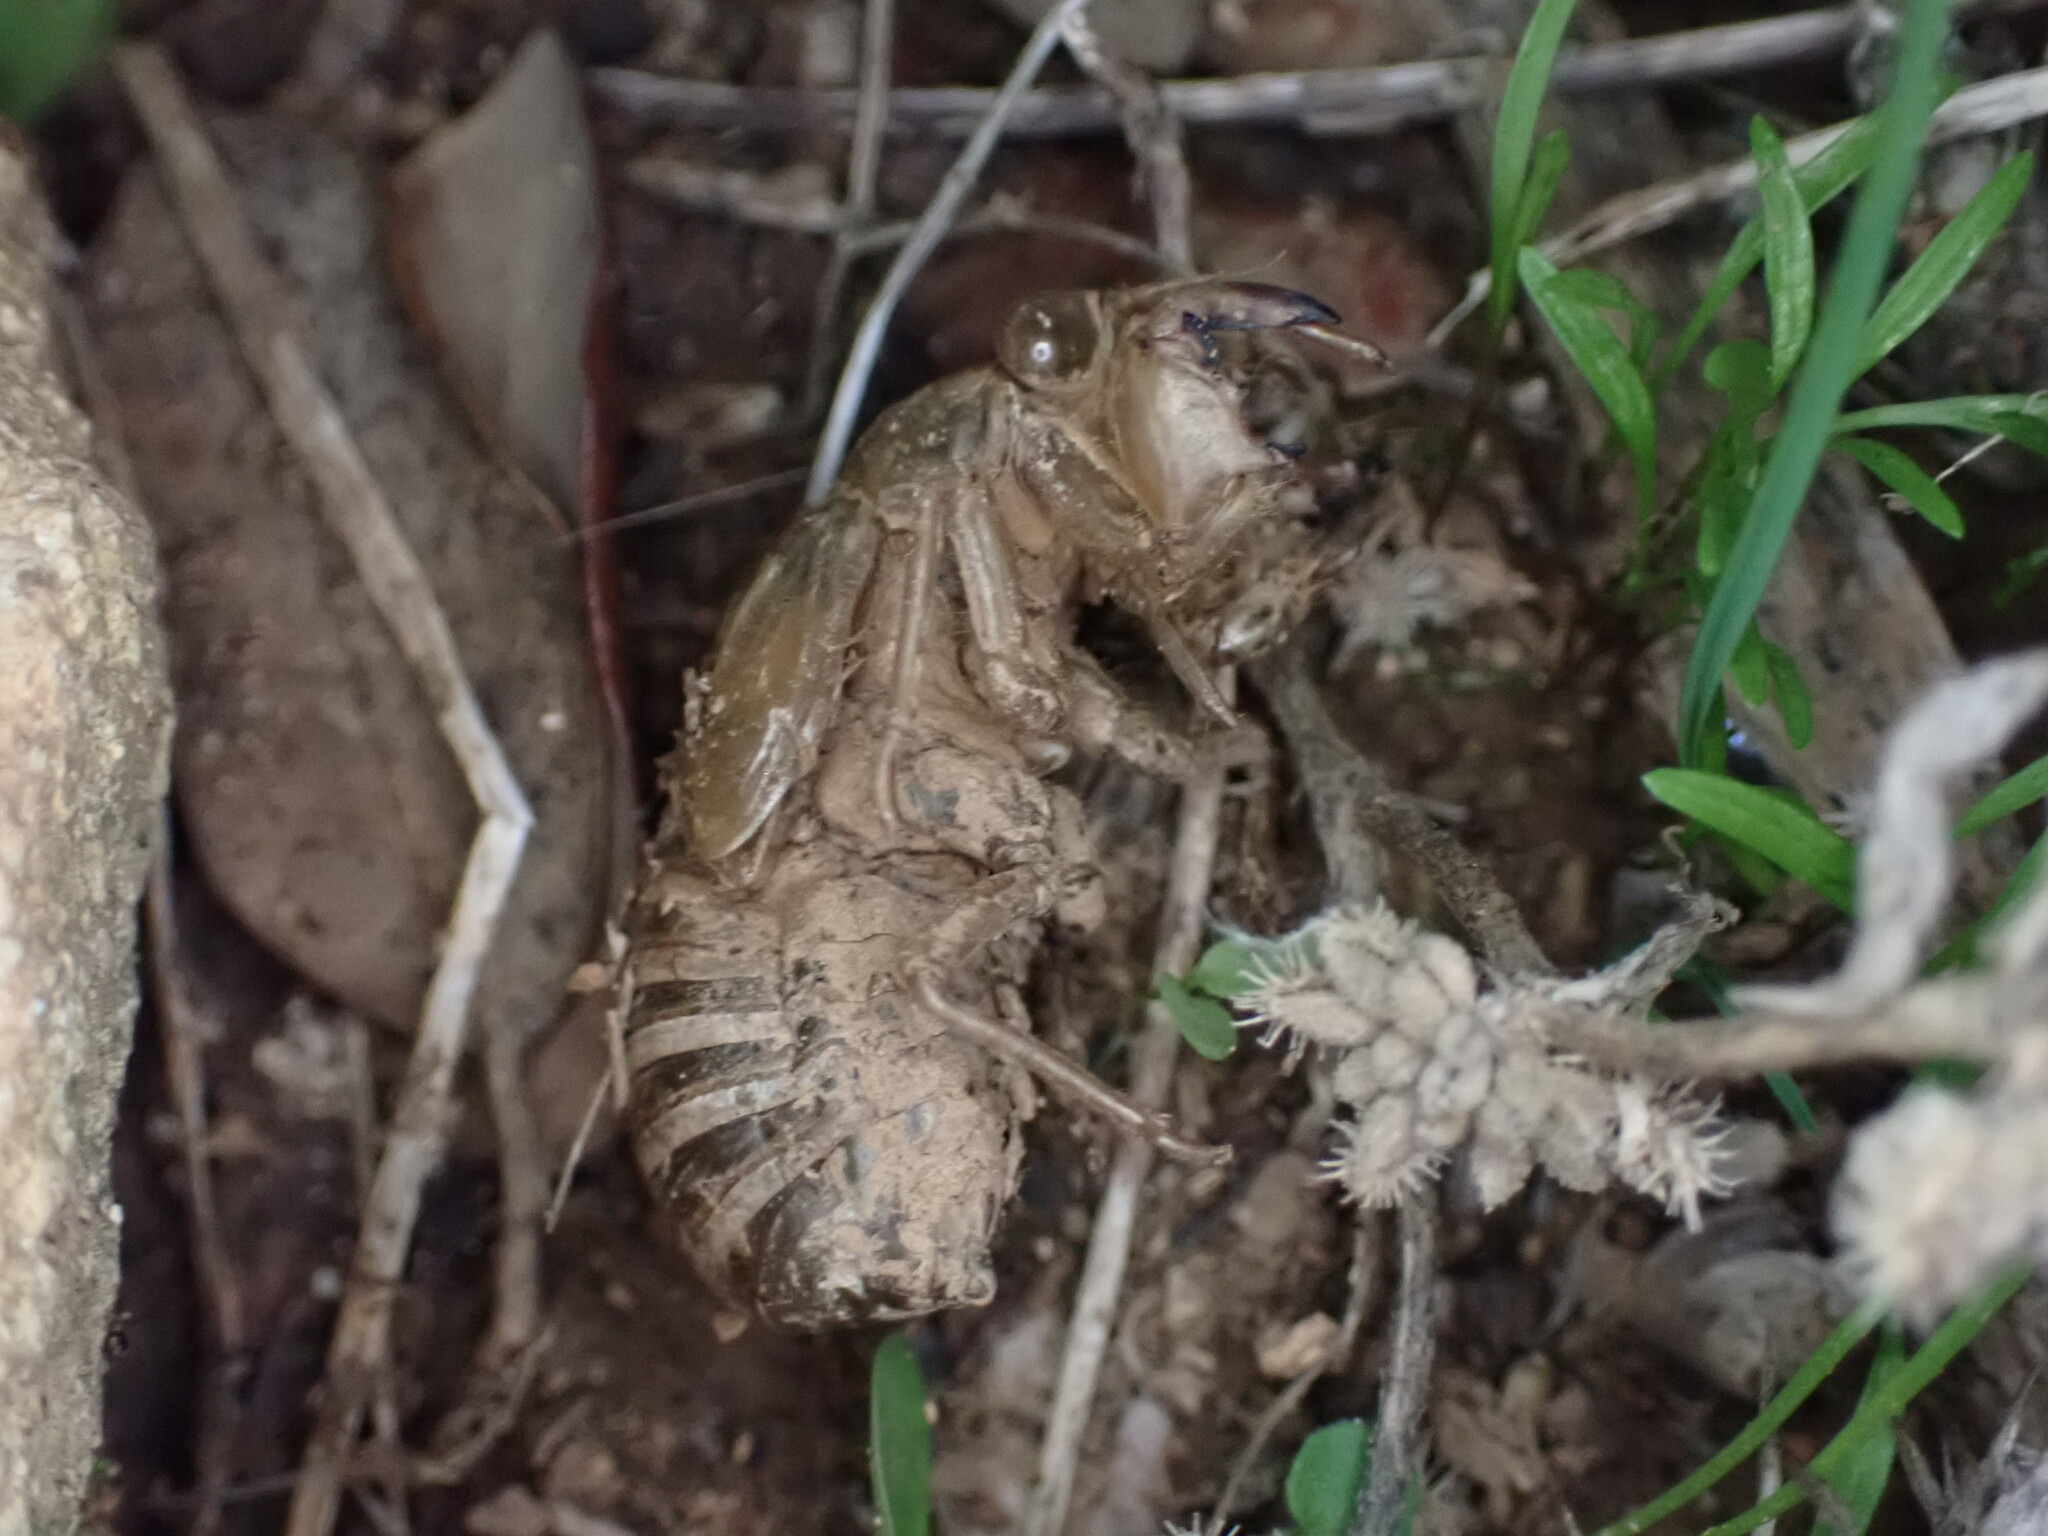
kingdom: Animalia
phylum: Arthropoda
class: Insecta
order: Hemiptera
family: Cicadidae
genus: Lyristes
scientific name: Lyristes plebejus
